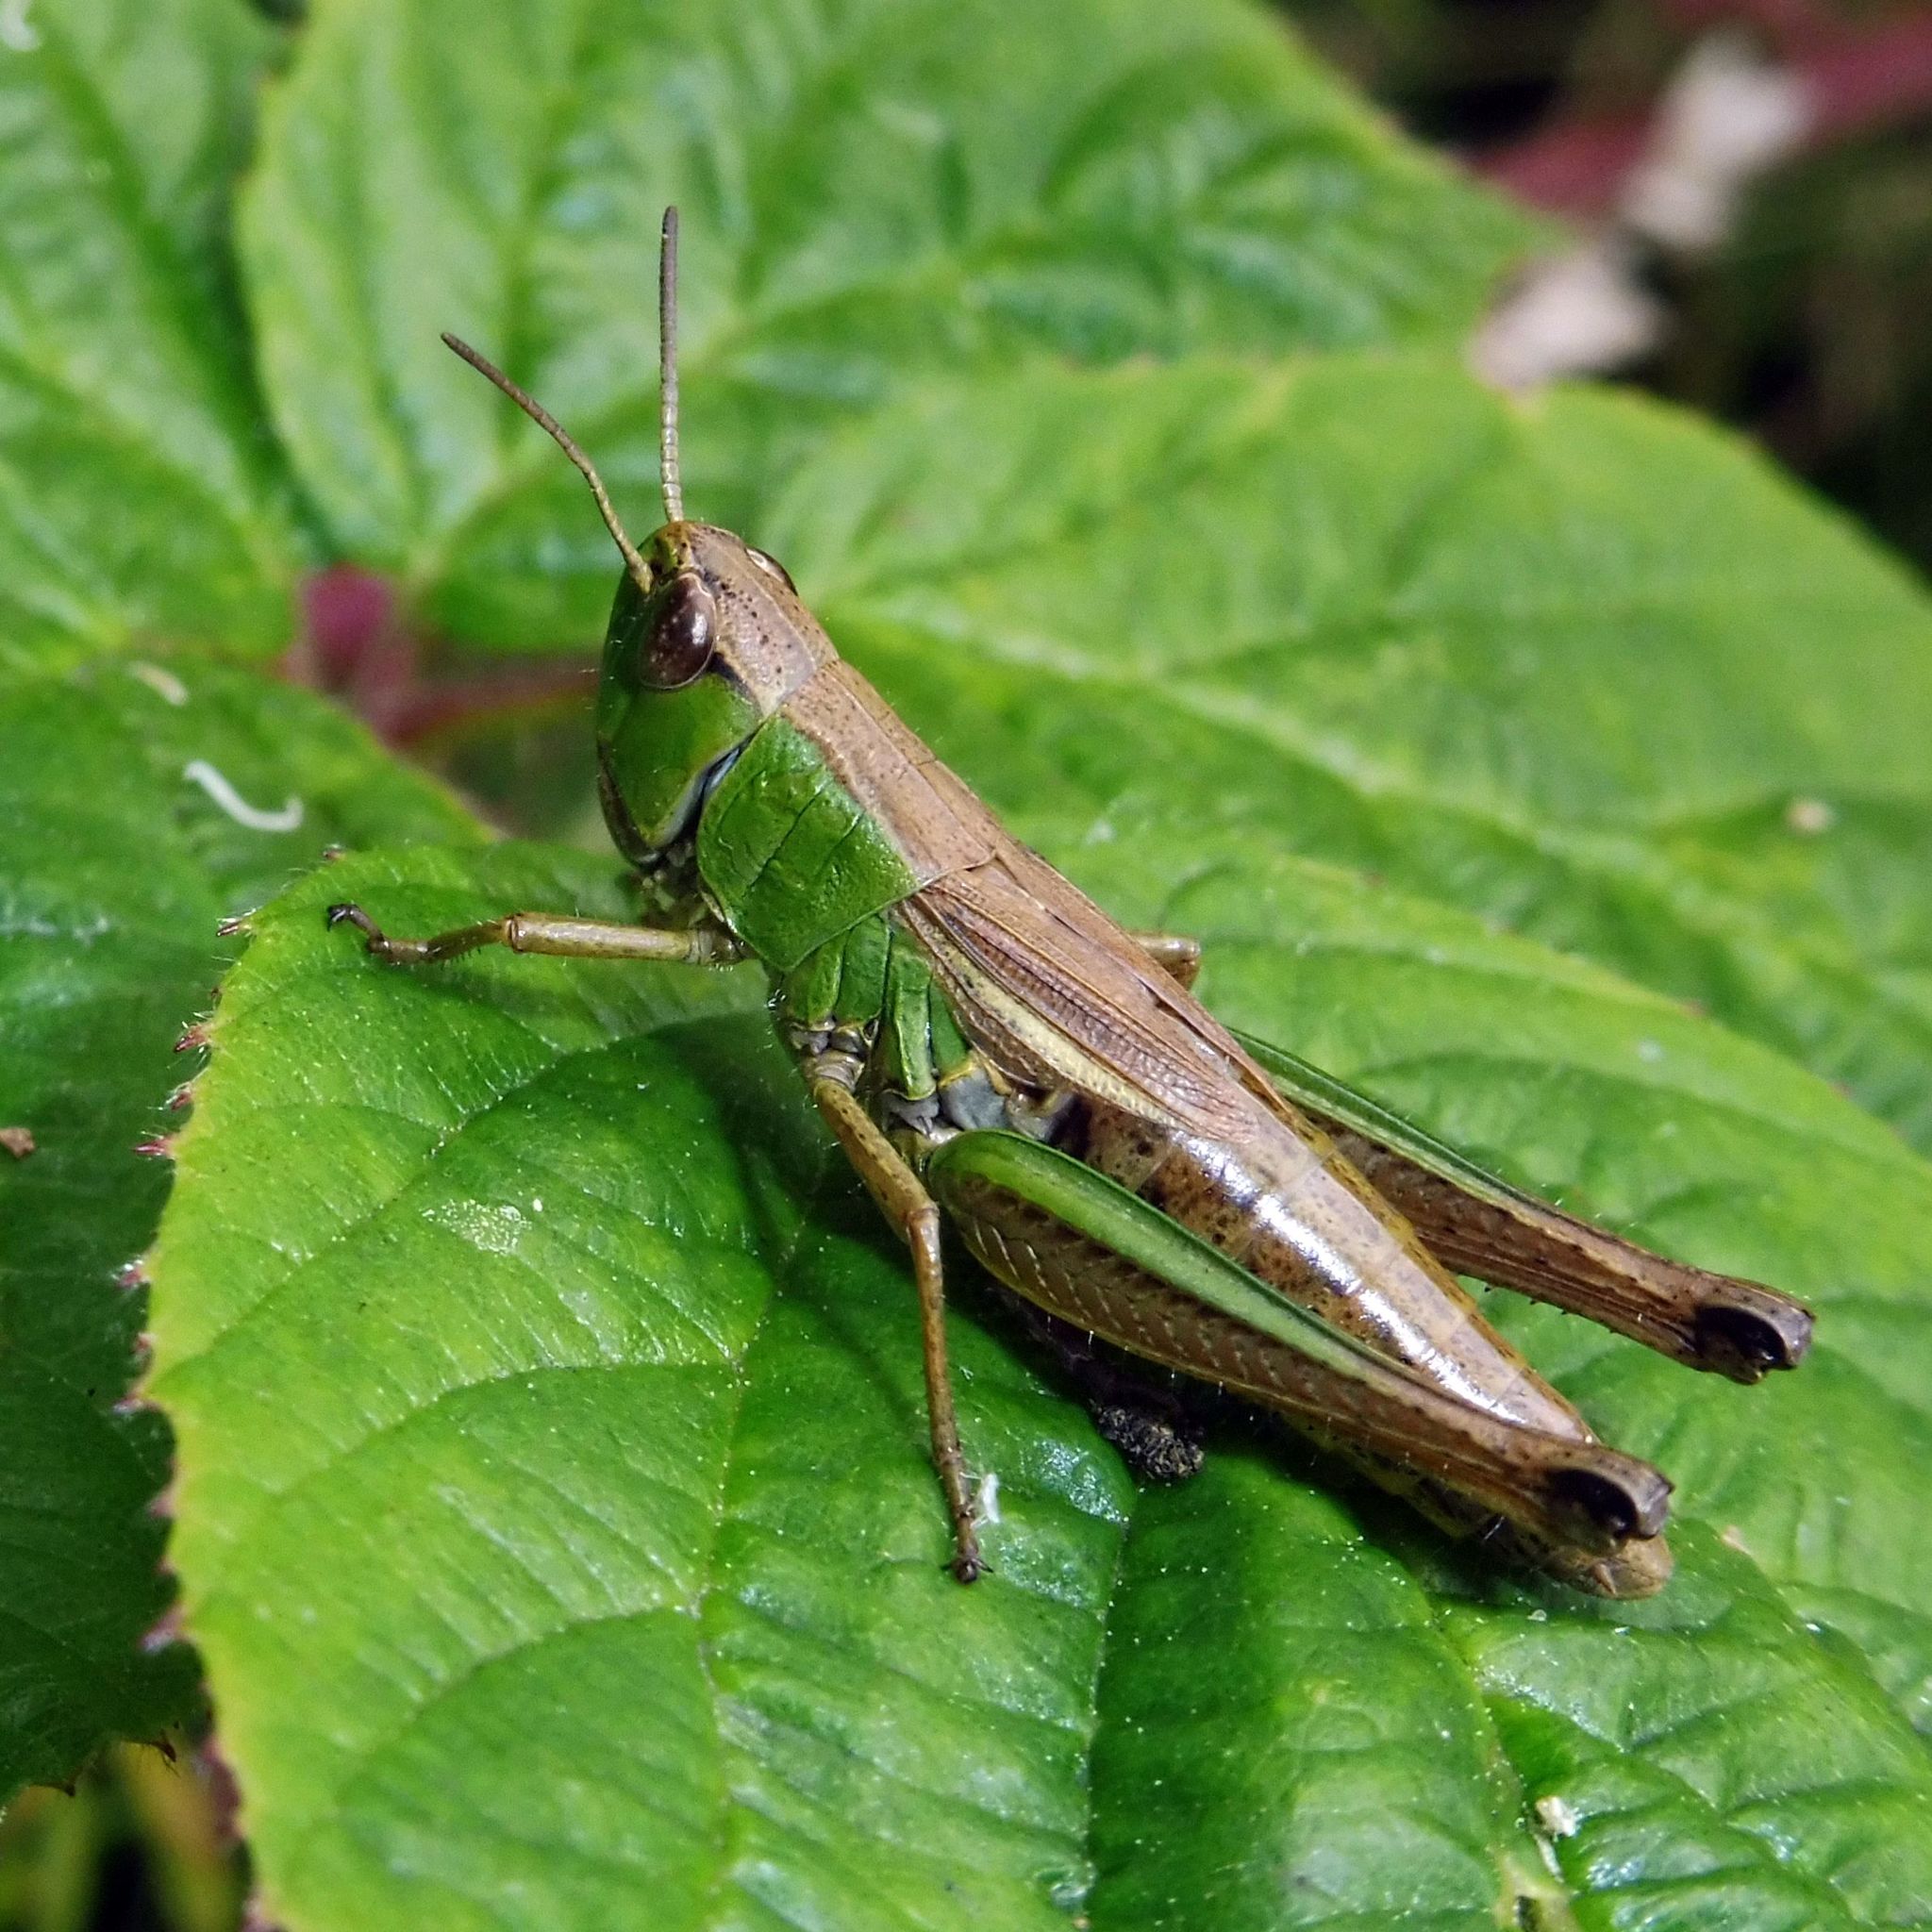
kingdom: Animalia
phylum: Arthropoda
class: Insecta
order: Orthoptera
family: Acrididae
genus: Pseudochorthippus
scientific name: Pseudochorthippus parallelus
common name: Meadow grasshopper
